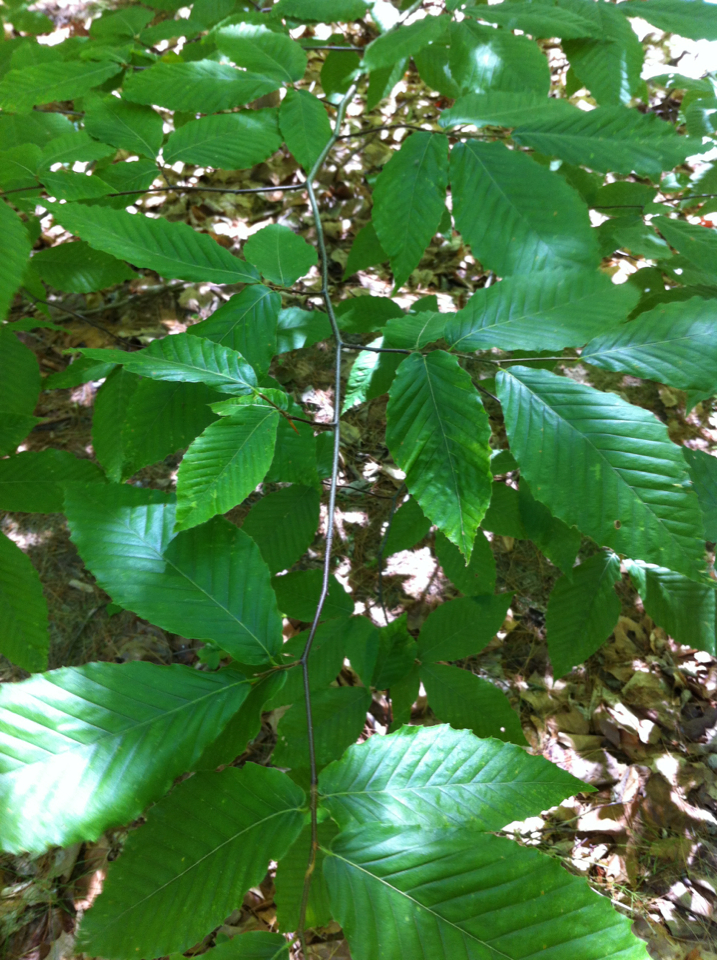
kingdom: Plantae
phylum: Tracheophyta
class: Magnoliopsida
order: Fagales
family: Fagaceae
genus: Fagus
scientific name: Fagus grandifolia
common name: American beech
